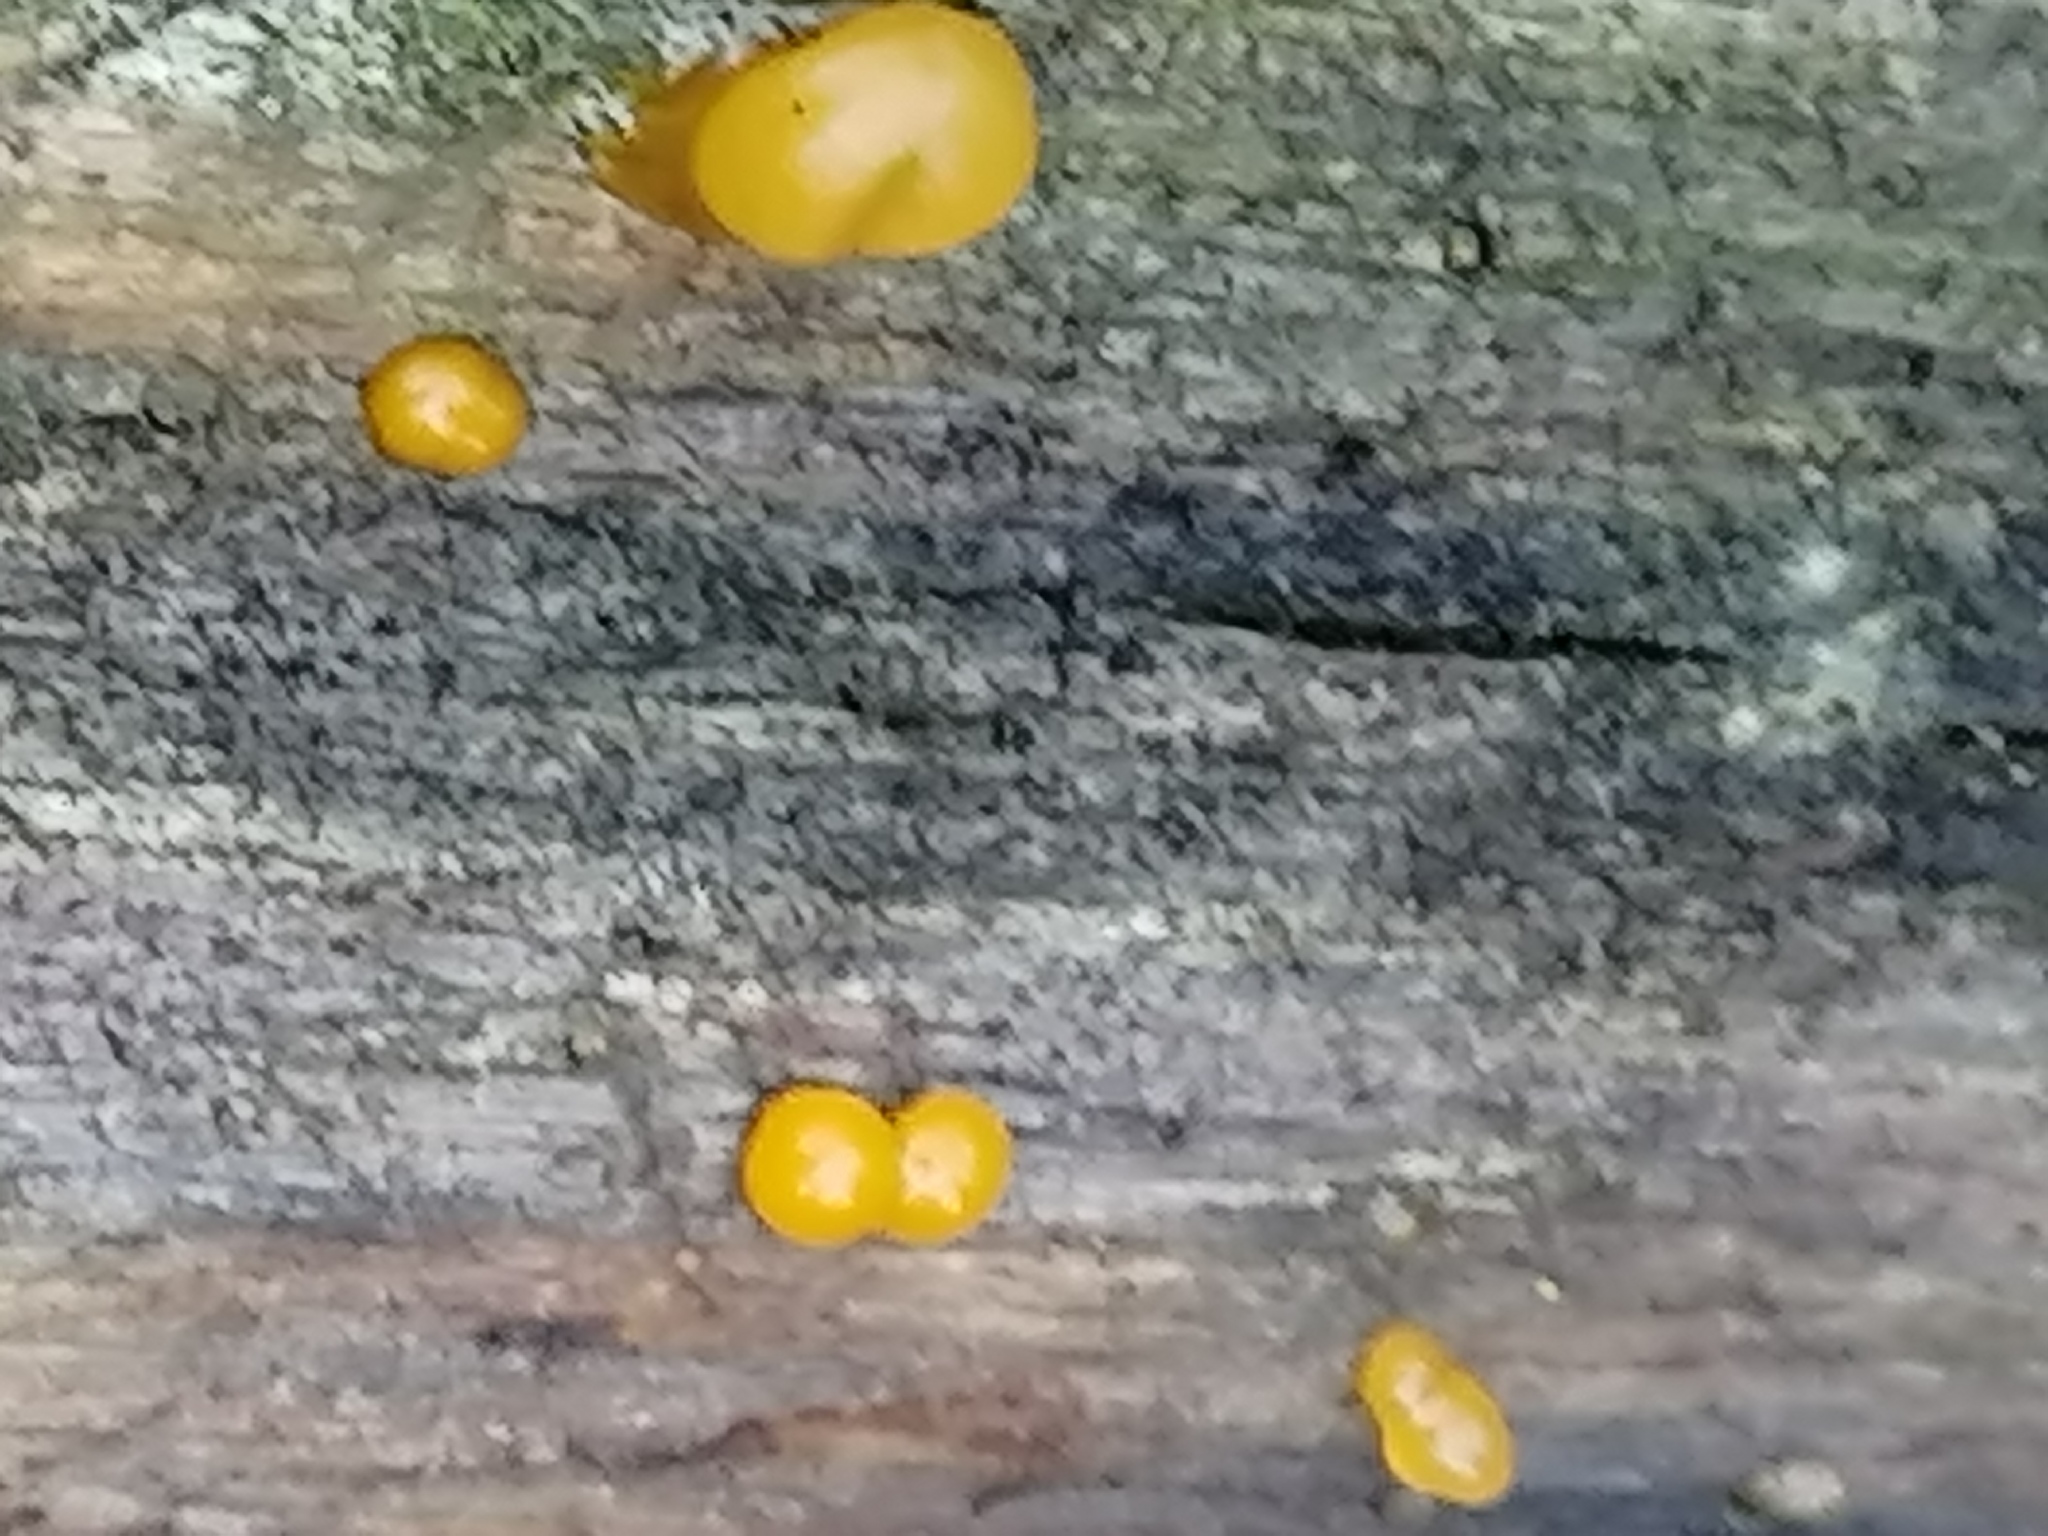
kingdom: Fungi
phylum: Basidiomycota
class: Dacrymycetes
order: Dacrymycetales
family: Dacrymycetaceae
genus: Dacrymyces
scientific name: Dacrymyces chrysospermus
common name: Orange jelly spot
